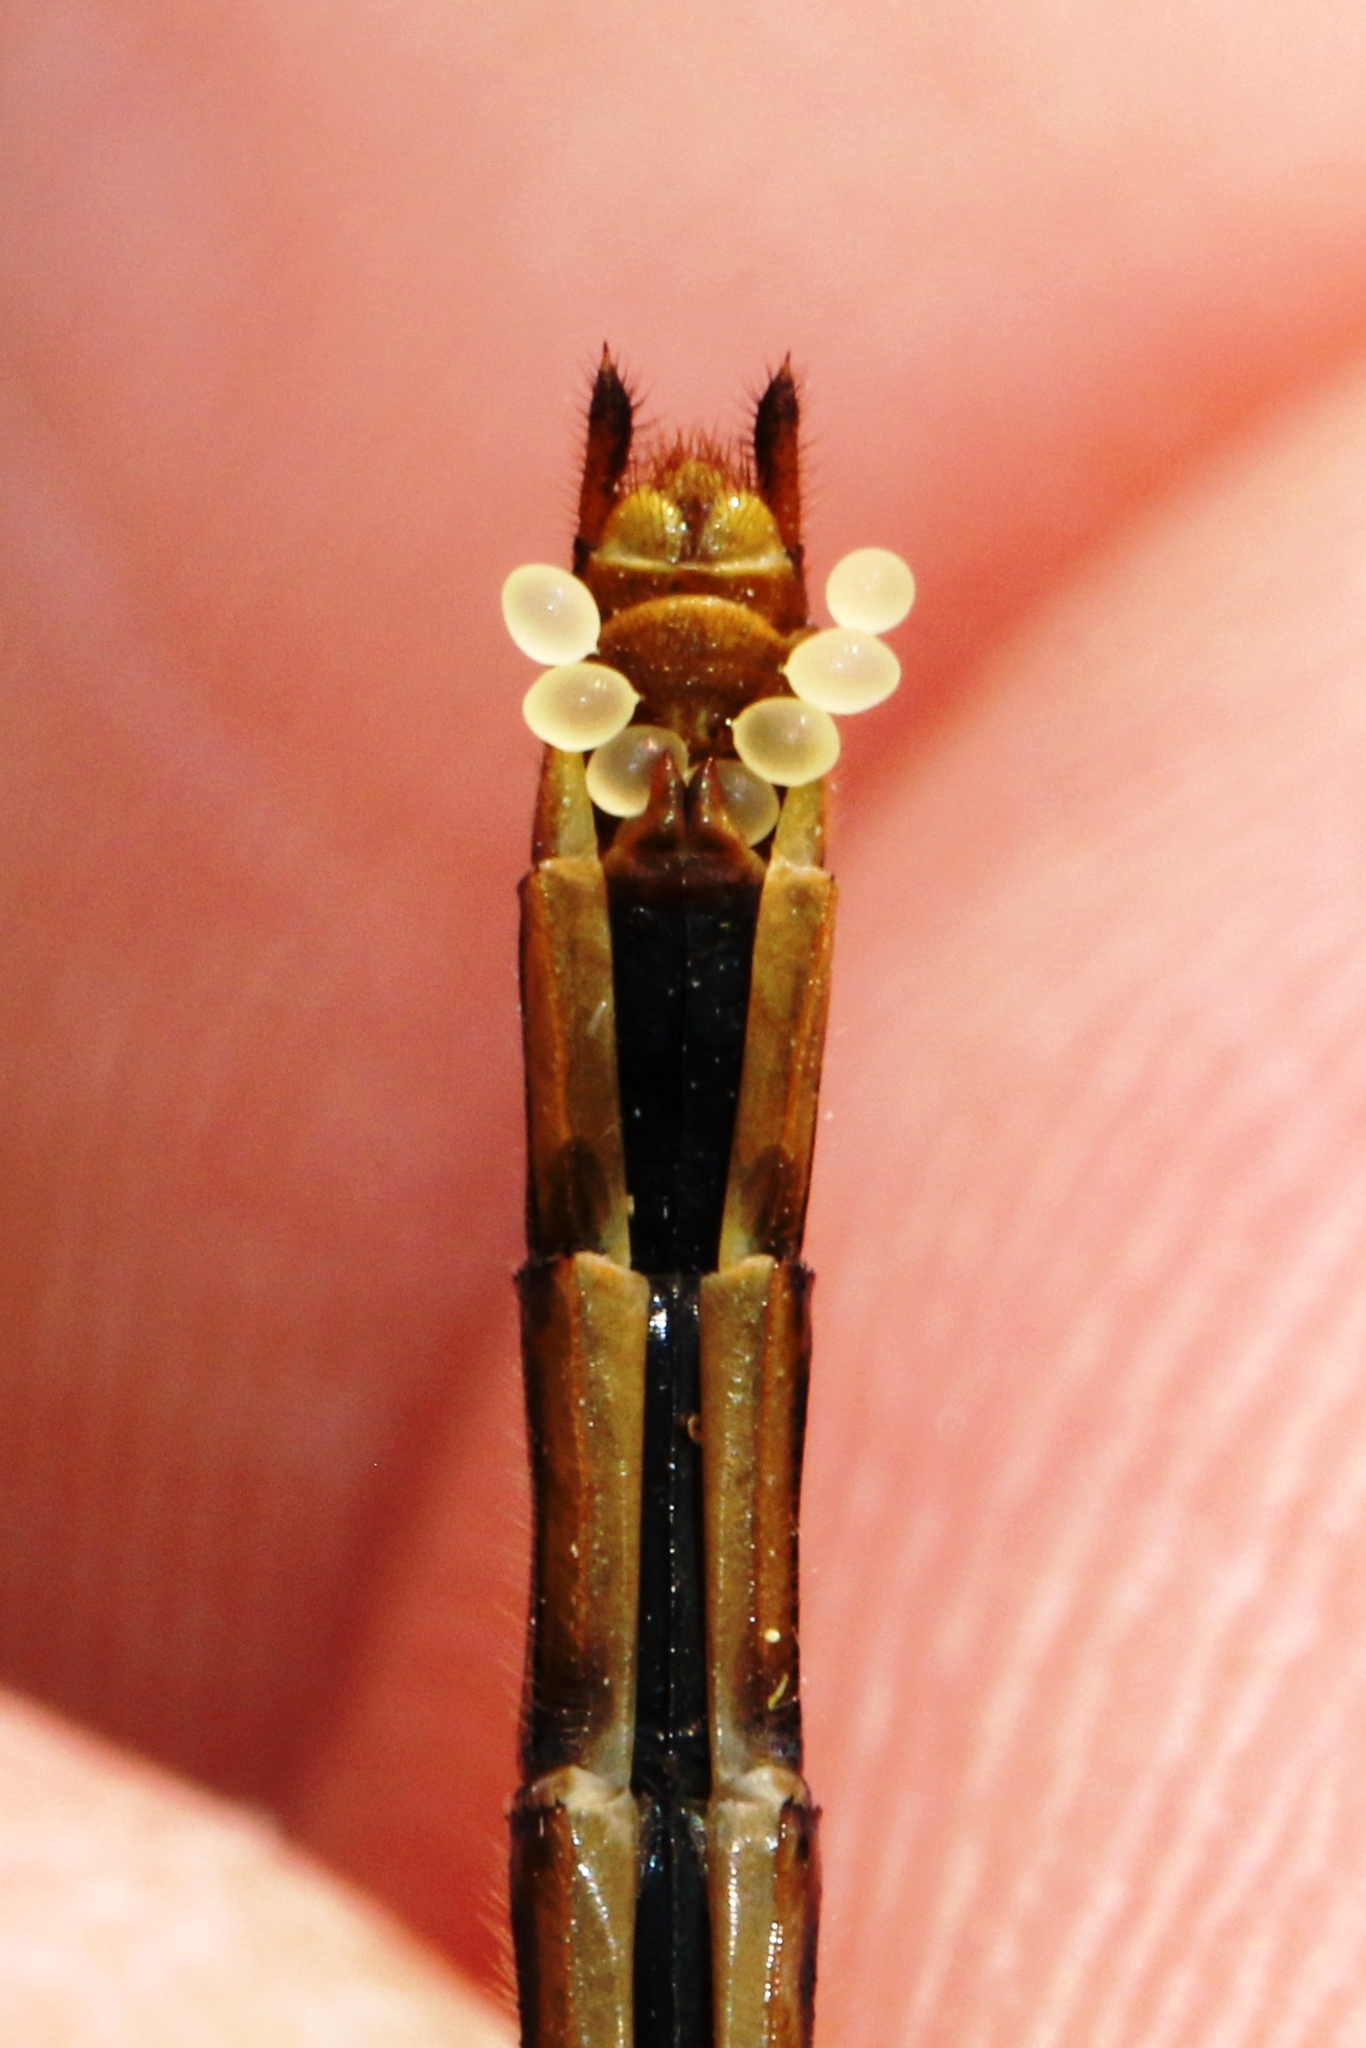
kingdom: Animalia
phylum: Arthropoda
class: Insecta
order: Odonata
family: Libellulidae
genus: Sympetrum
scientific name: Sympetrum obtrusum
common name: White-faced meadowhawk
